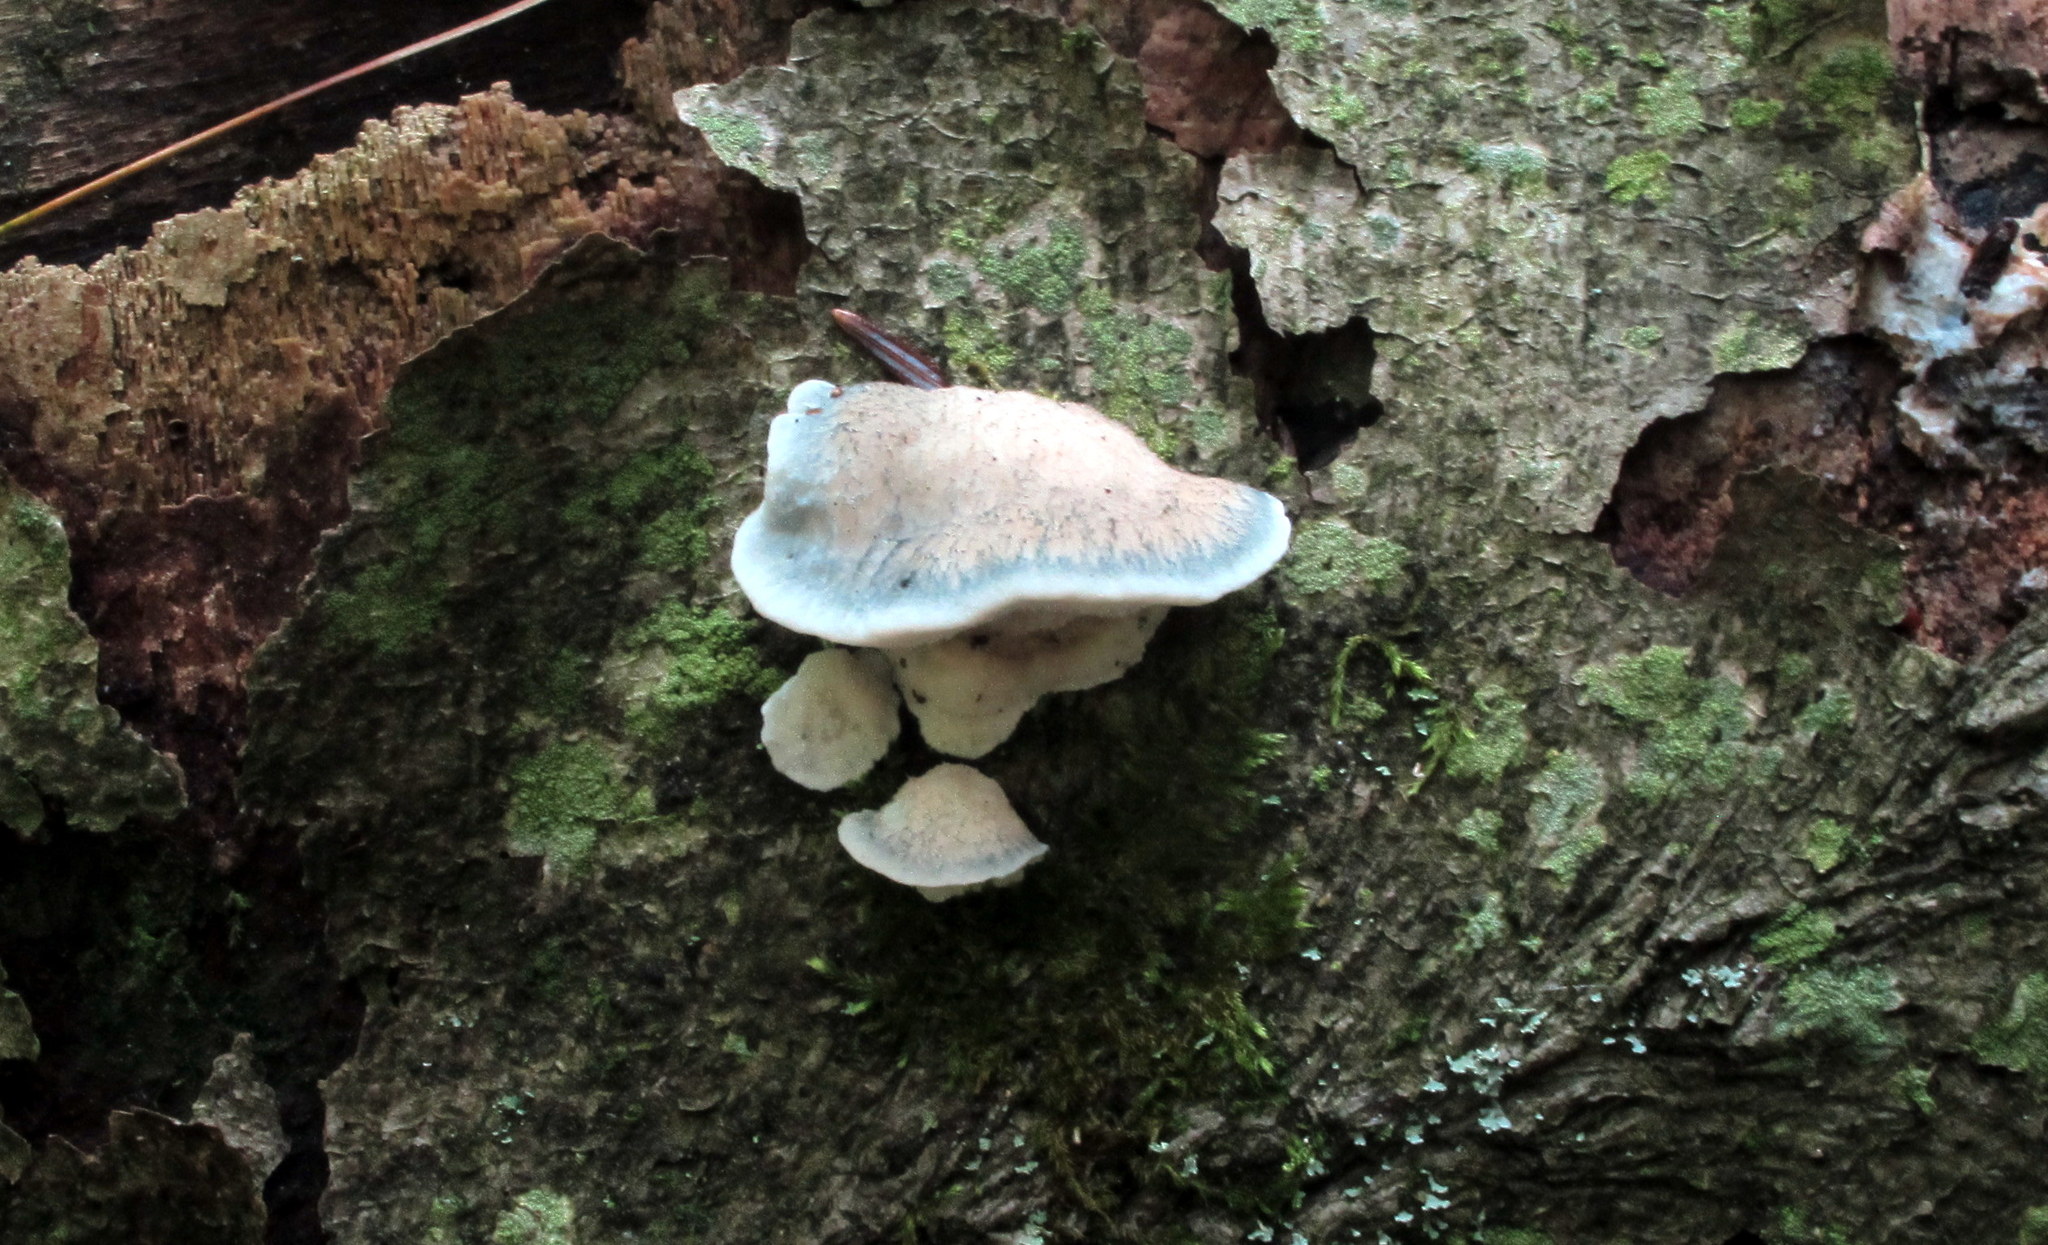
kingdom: Fungi
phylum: Basidiomycota
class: Agaricomycetes
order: Polyporales
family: Polyporaceae
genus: Cyanosporus
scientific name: Cyanosporus caesius
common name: Blue cheese polypore
